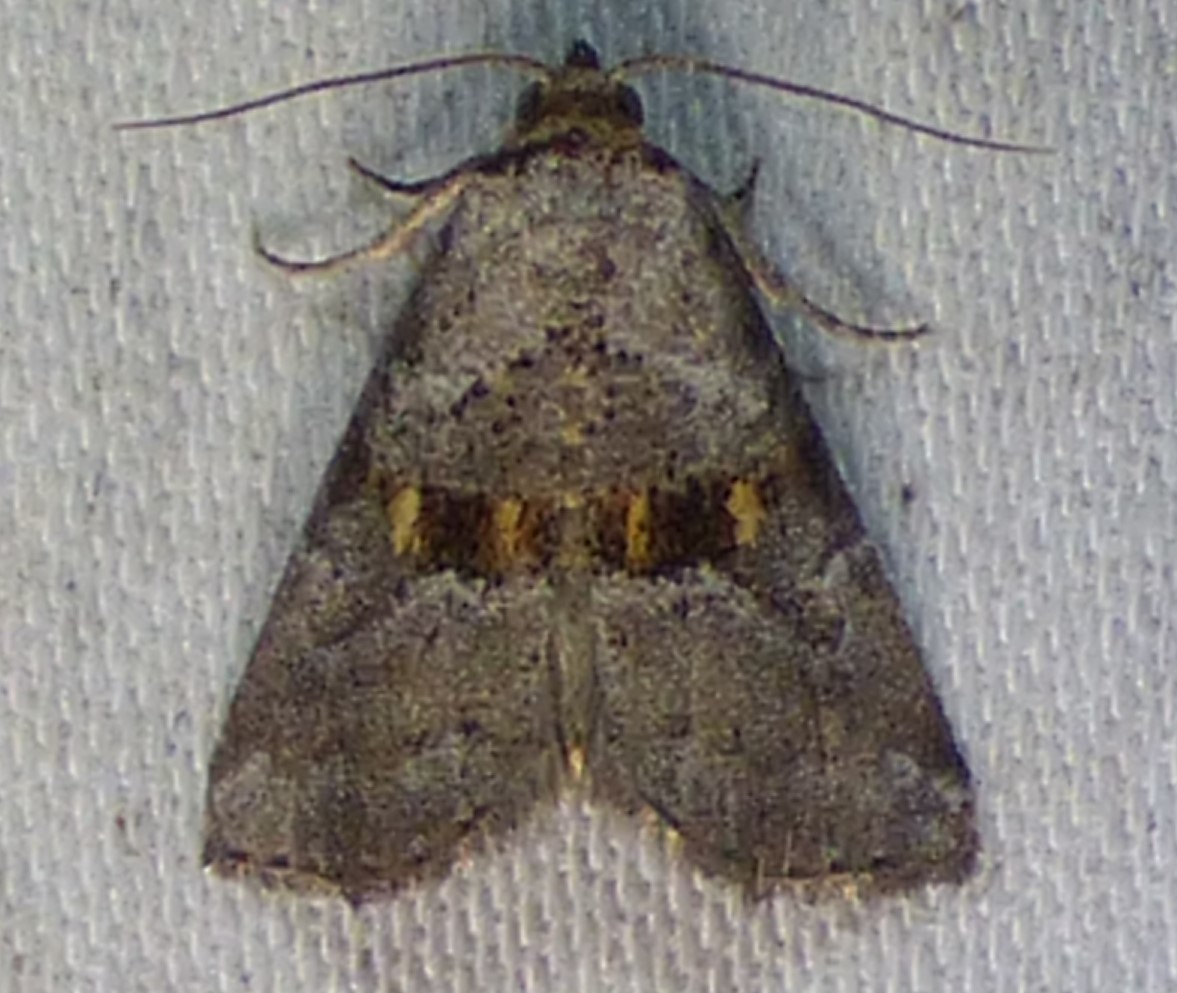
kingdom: Animalia
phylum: Arthropoda
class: Insecta
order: Lepidoptera
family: Erebidae
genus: Hyperstrotia
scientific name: Hyperstrotia flaviguttata
